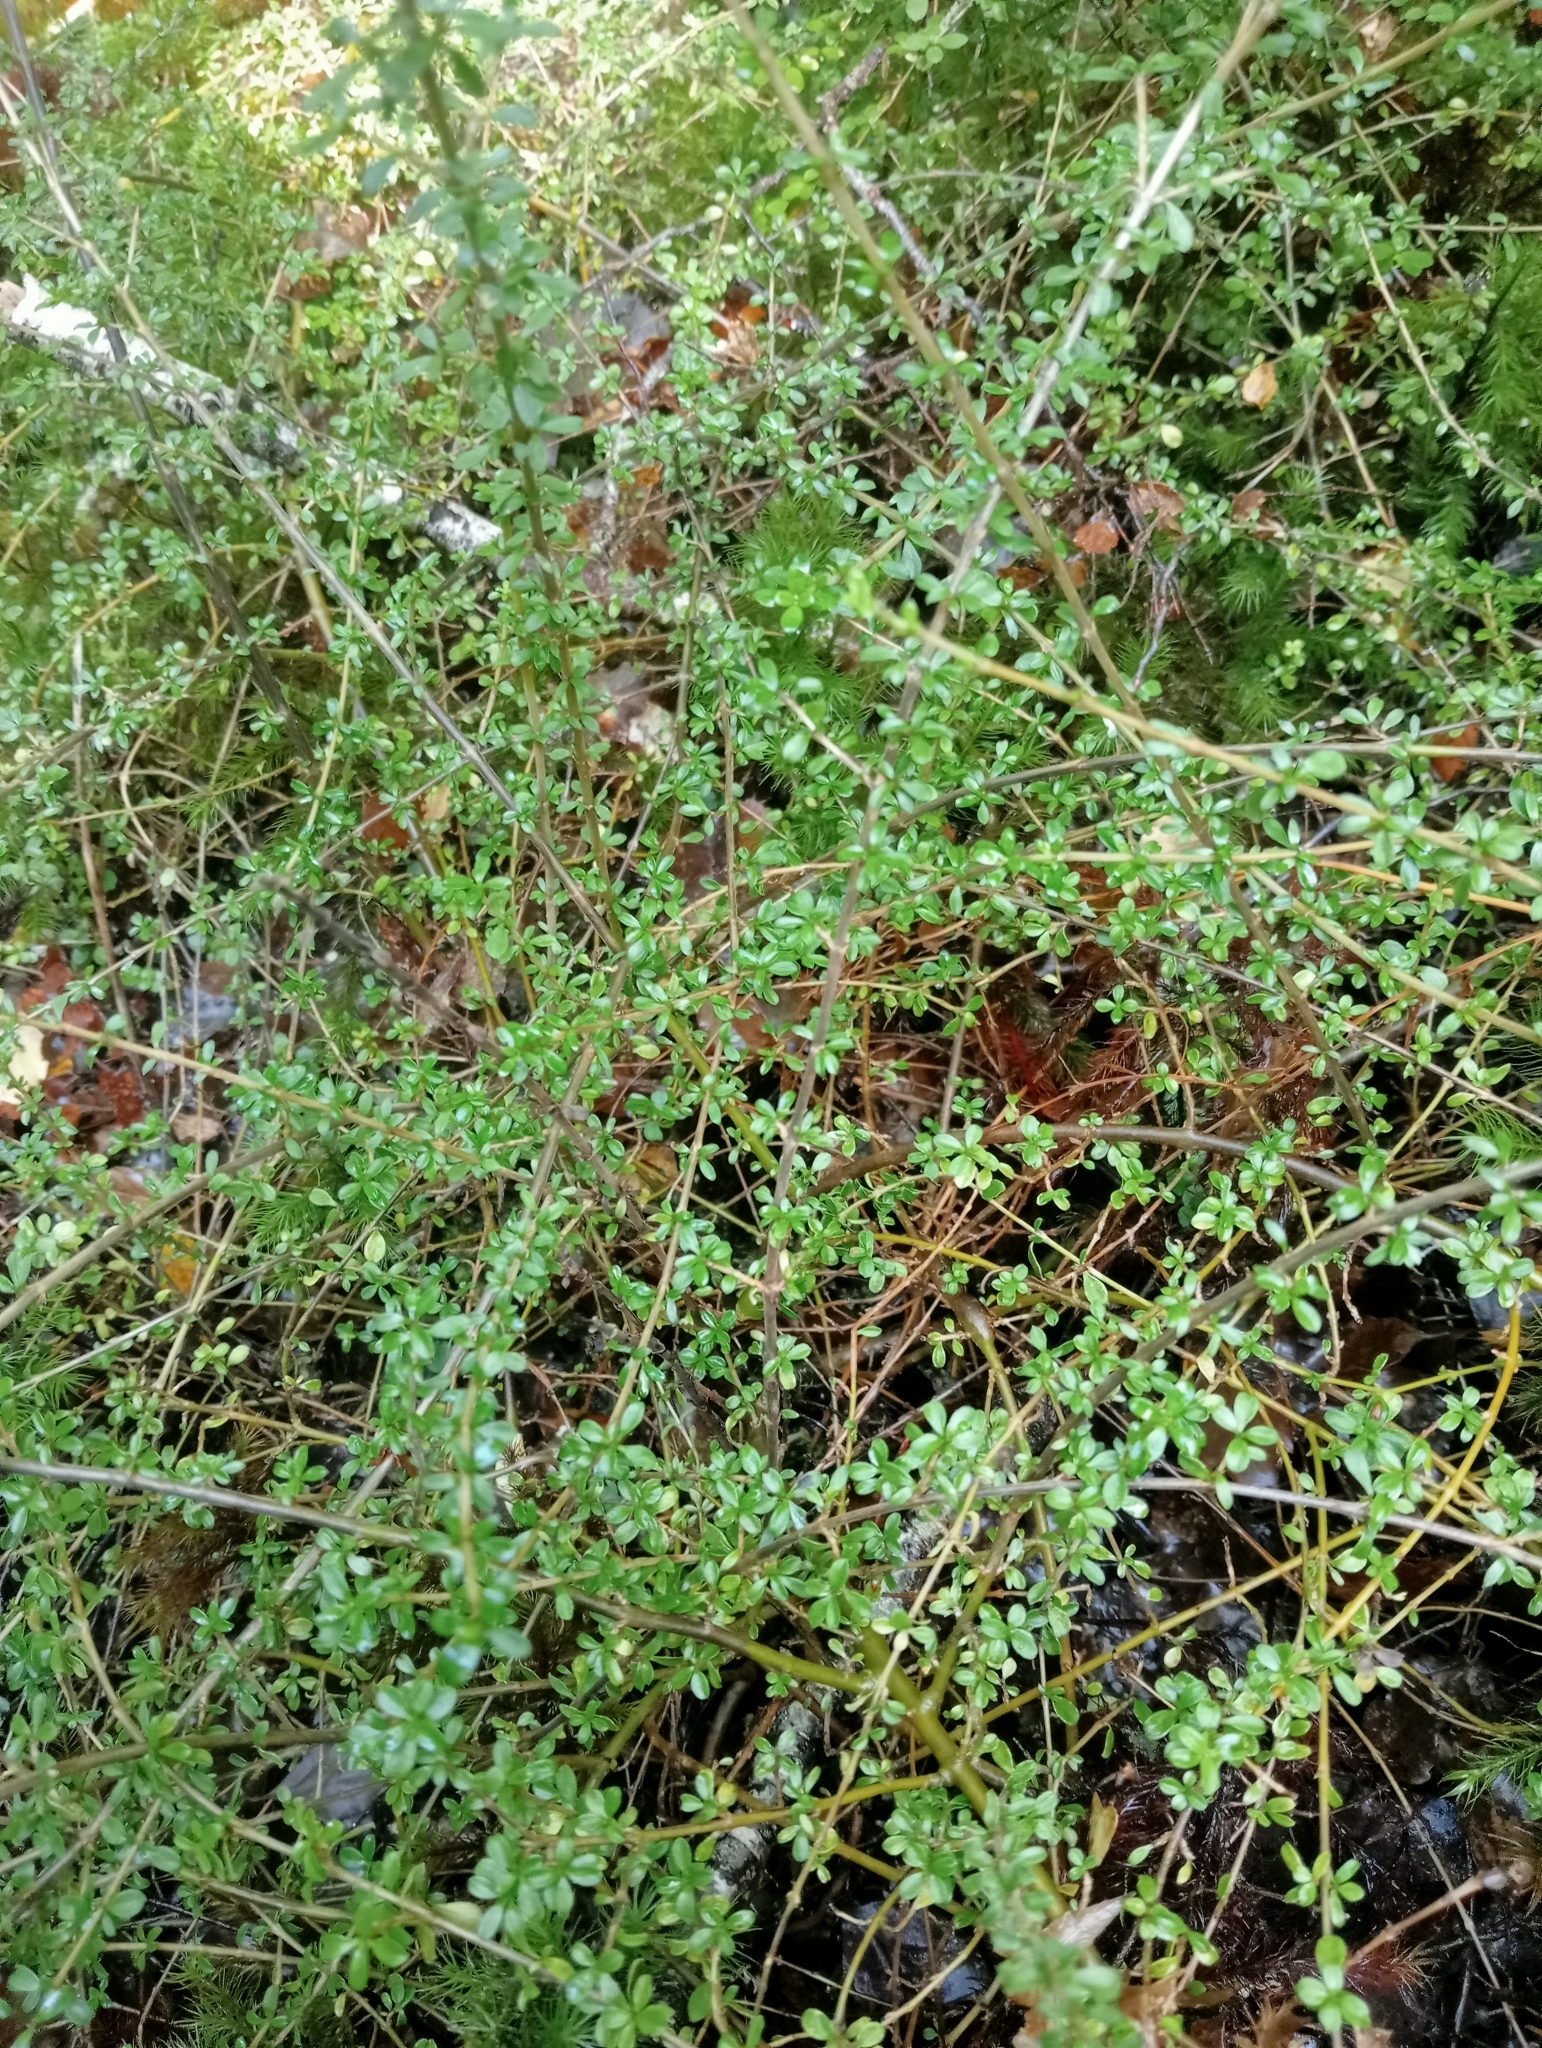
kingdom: Plantae
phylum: Tracheophyta
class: Magnoliopsida
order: Gentianales
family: Rubiaceae
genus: Coprosma
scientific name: Coprosma depressa
